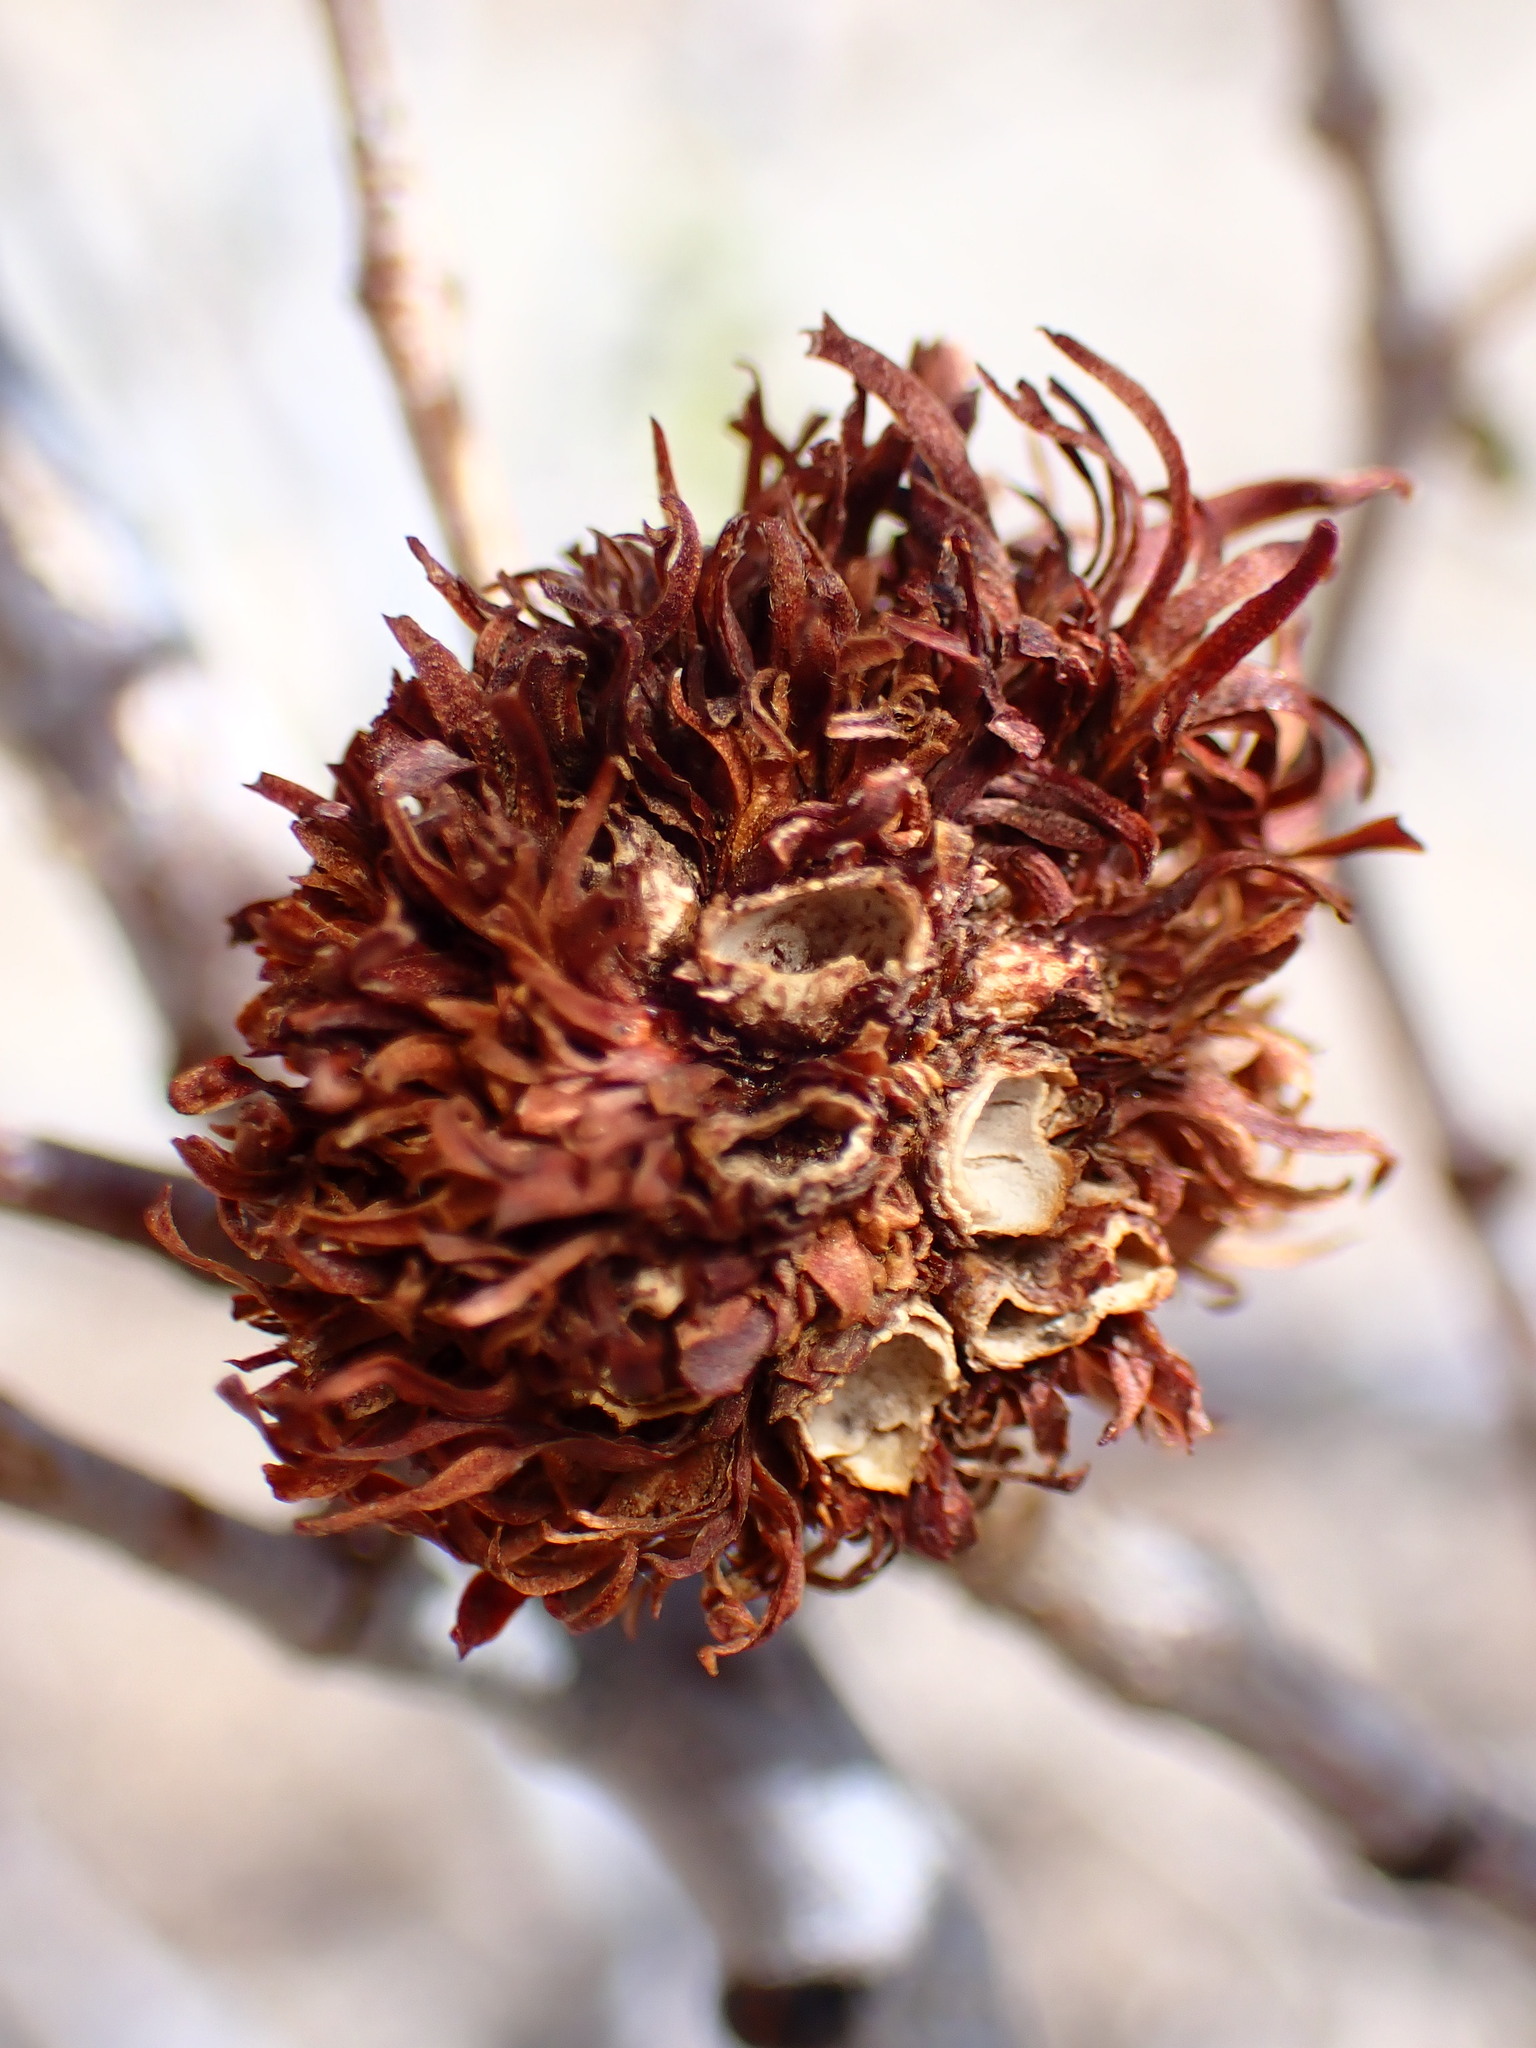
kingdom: Animalia
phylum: Arthropoda
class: Insecta
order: Diptera
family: Cecidomyiidae
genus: Asphondylia
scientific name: Asphondylia auripila
